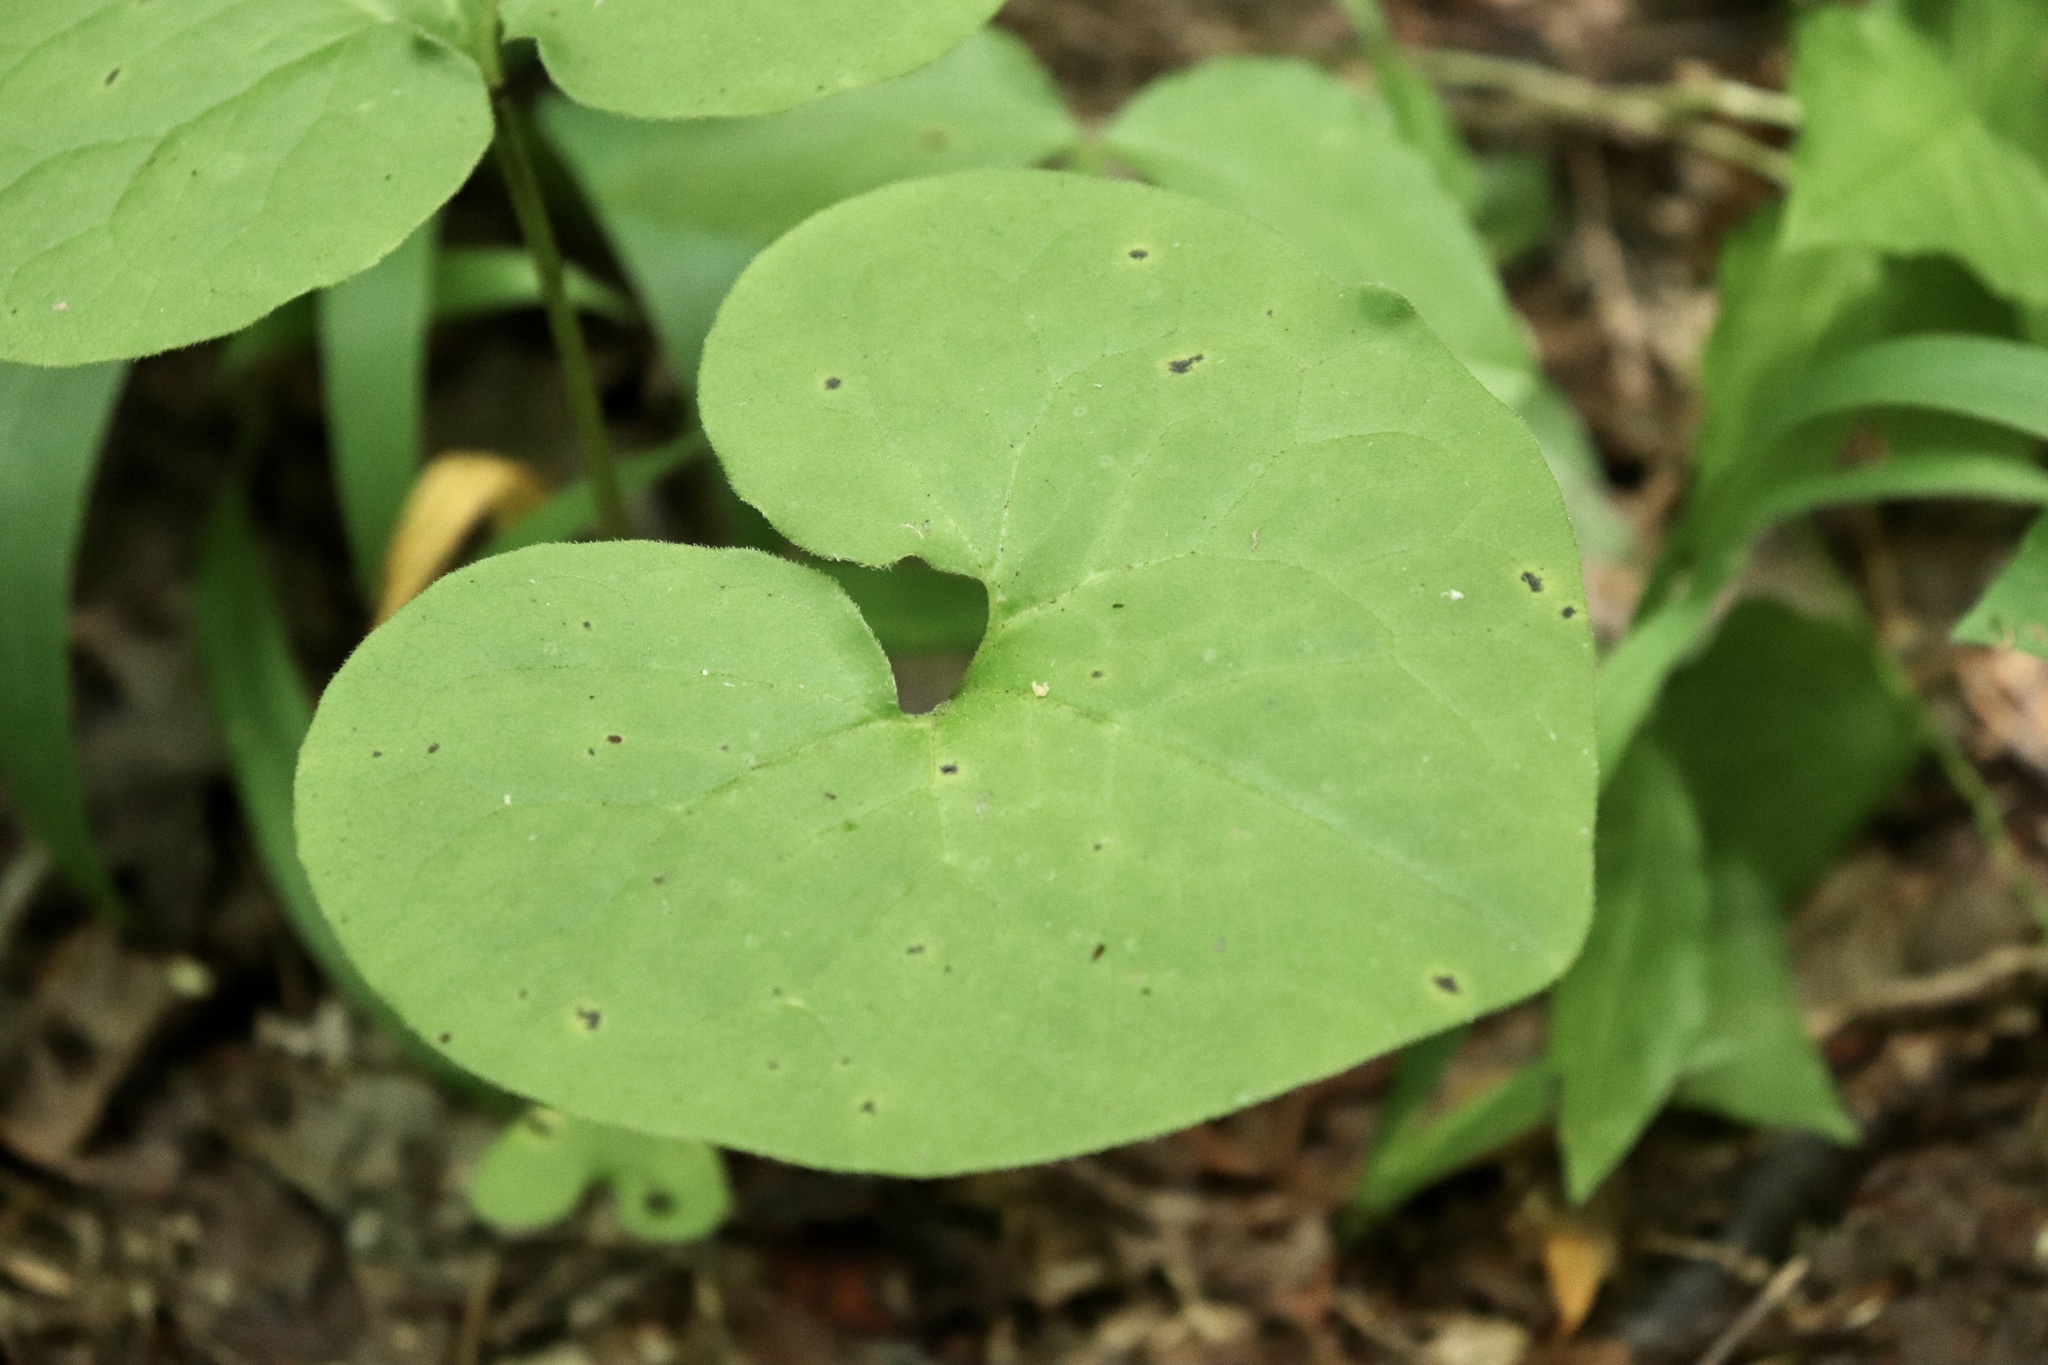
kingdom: Plantae
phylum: Tracheophyta
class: Magnoliopsida
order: Piperales
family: Aristolochiaceae
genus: Asarum
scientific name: Asarum canadense
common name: Wild ginger
